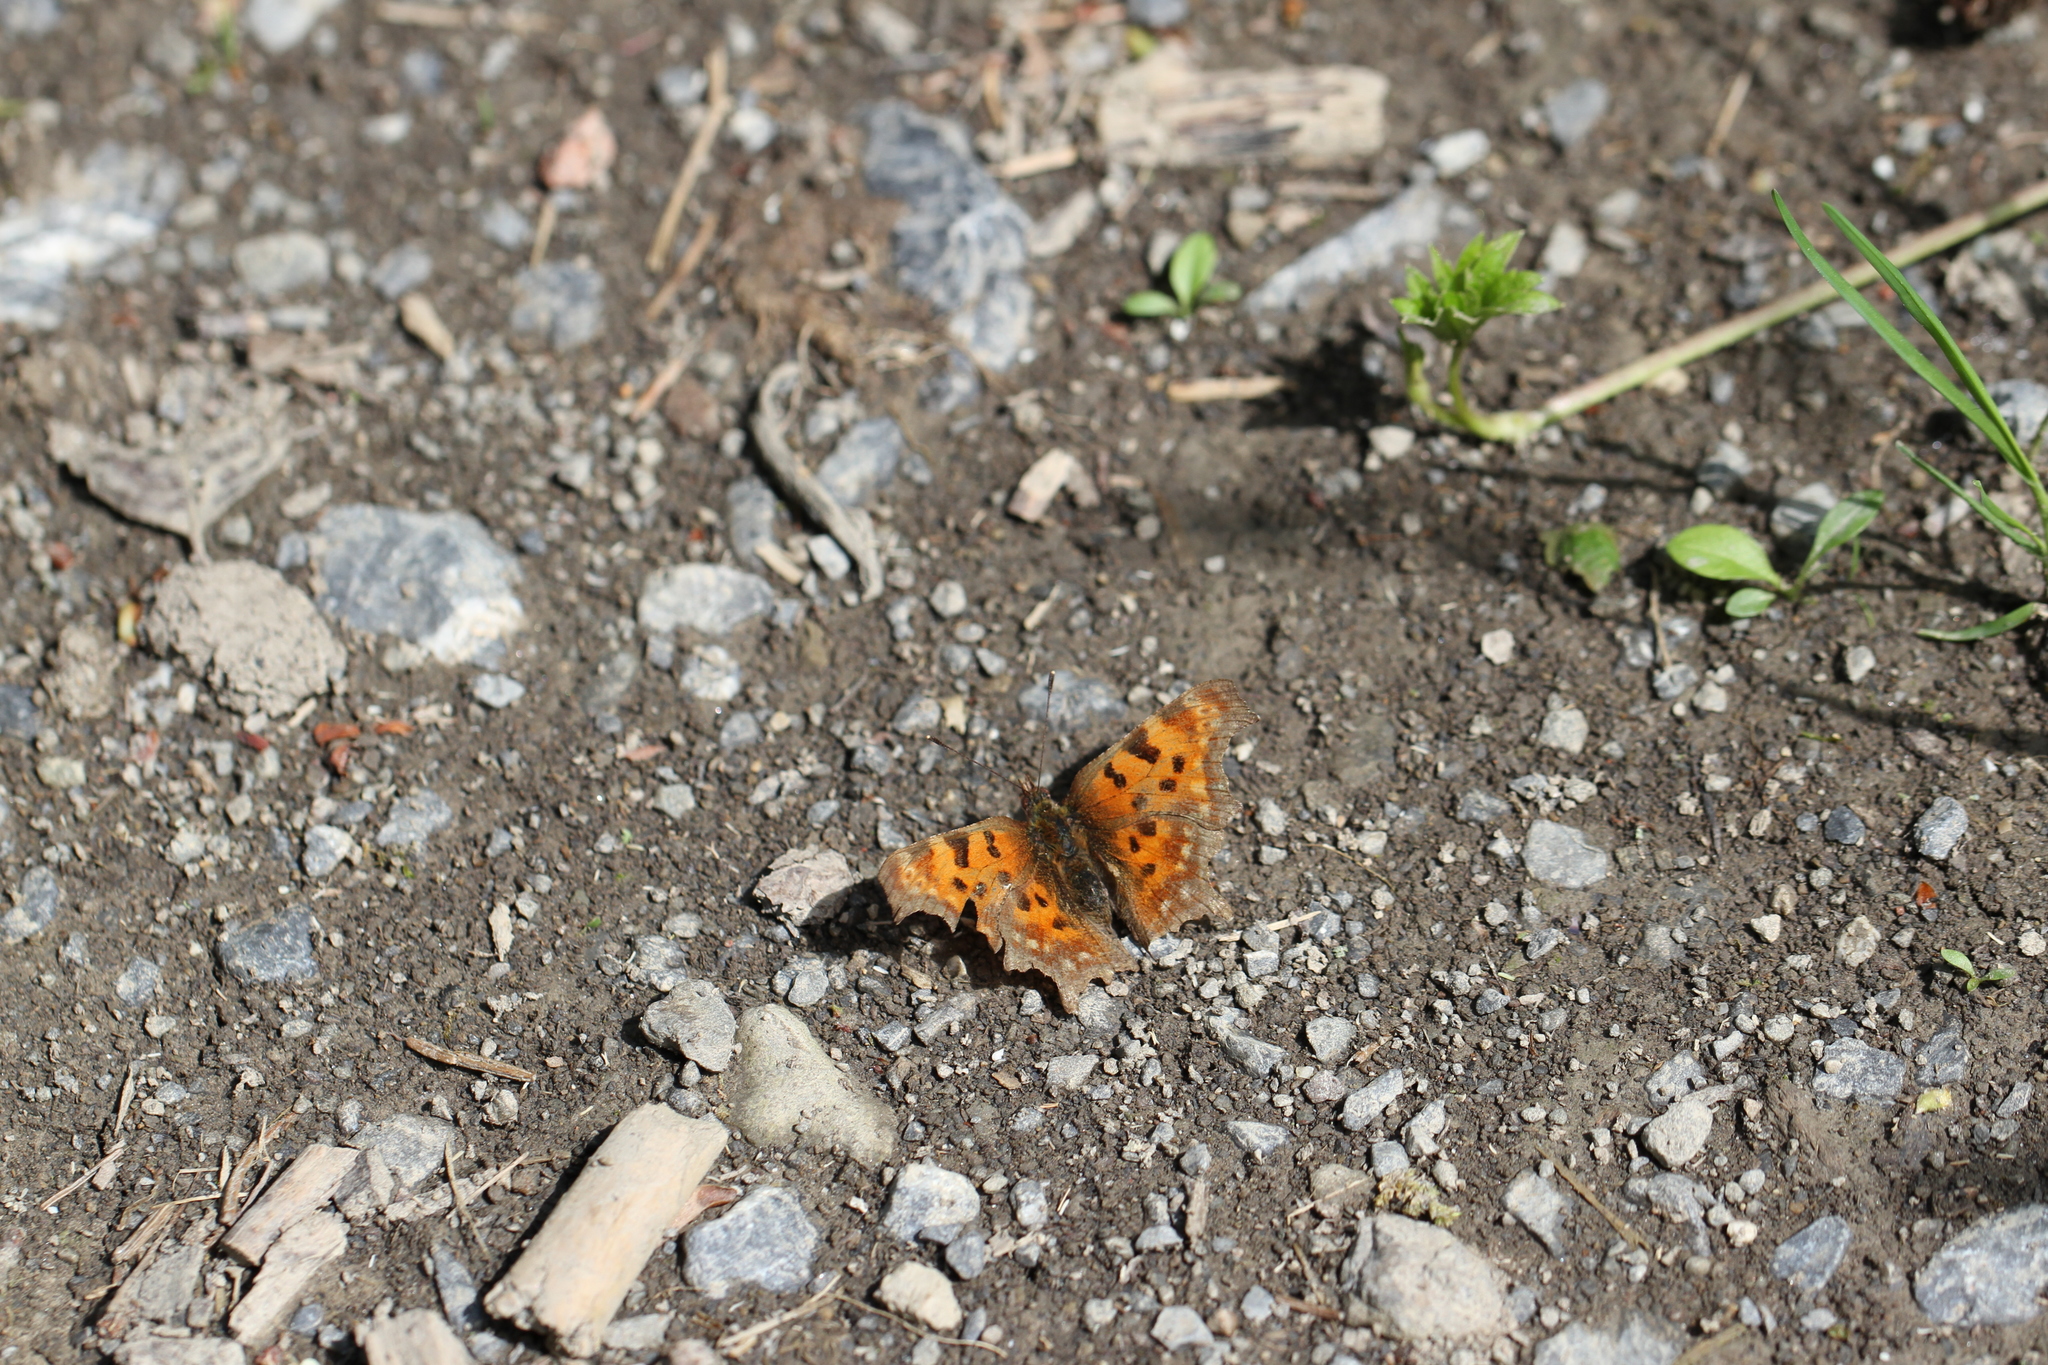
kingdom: Animalia
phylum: Arthropoda
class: Insecta
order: Lepidoptera
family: Nymphalidae
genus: Polygonia
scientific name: Polygonia c-album
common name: Comma
